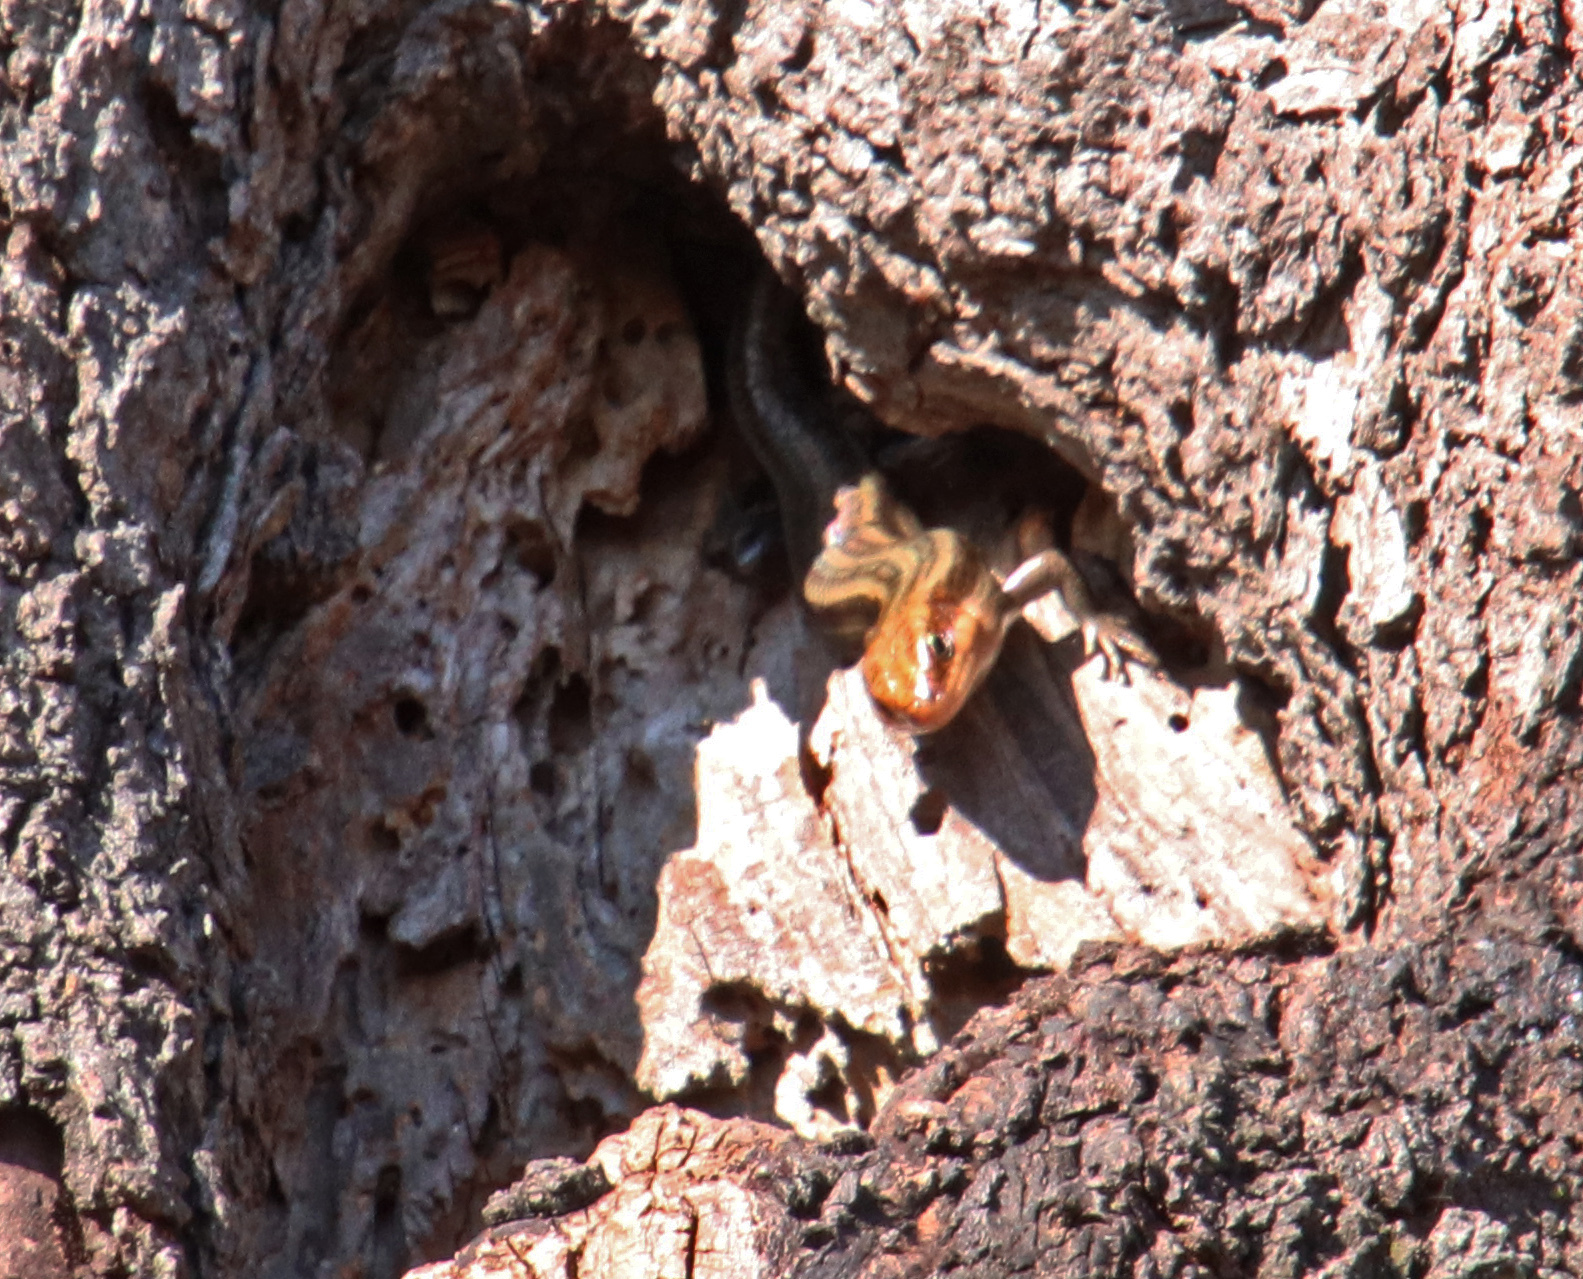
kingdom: Animalia
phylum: Chordata
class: Squamata
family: Scincidae
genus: Plestiodon
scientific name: Plestiodon fasciatus
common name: Five-lined skink
